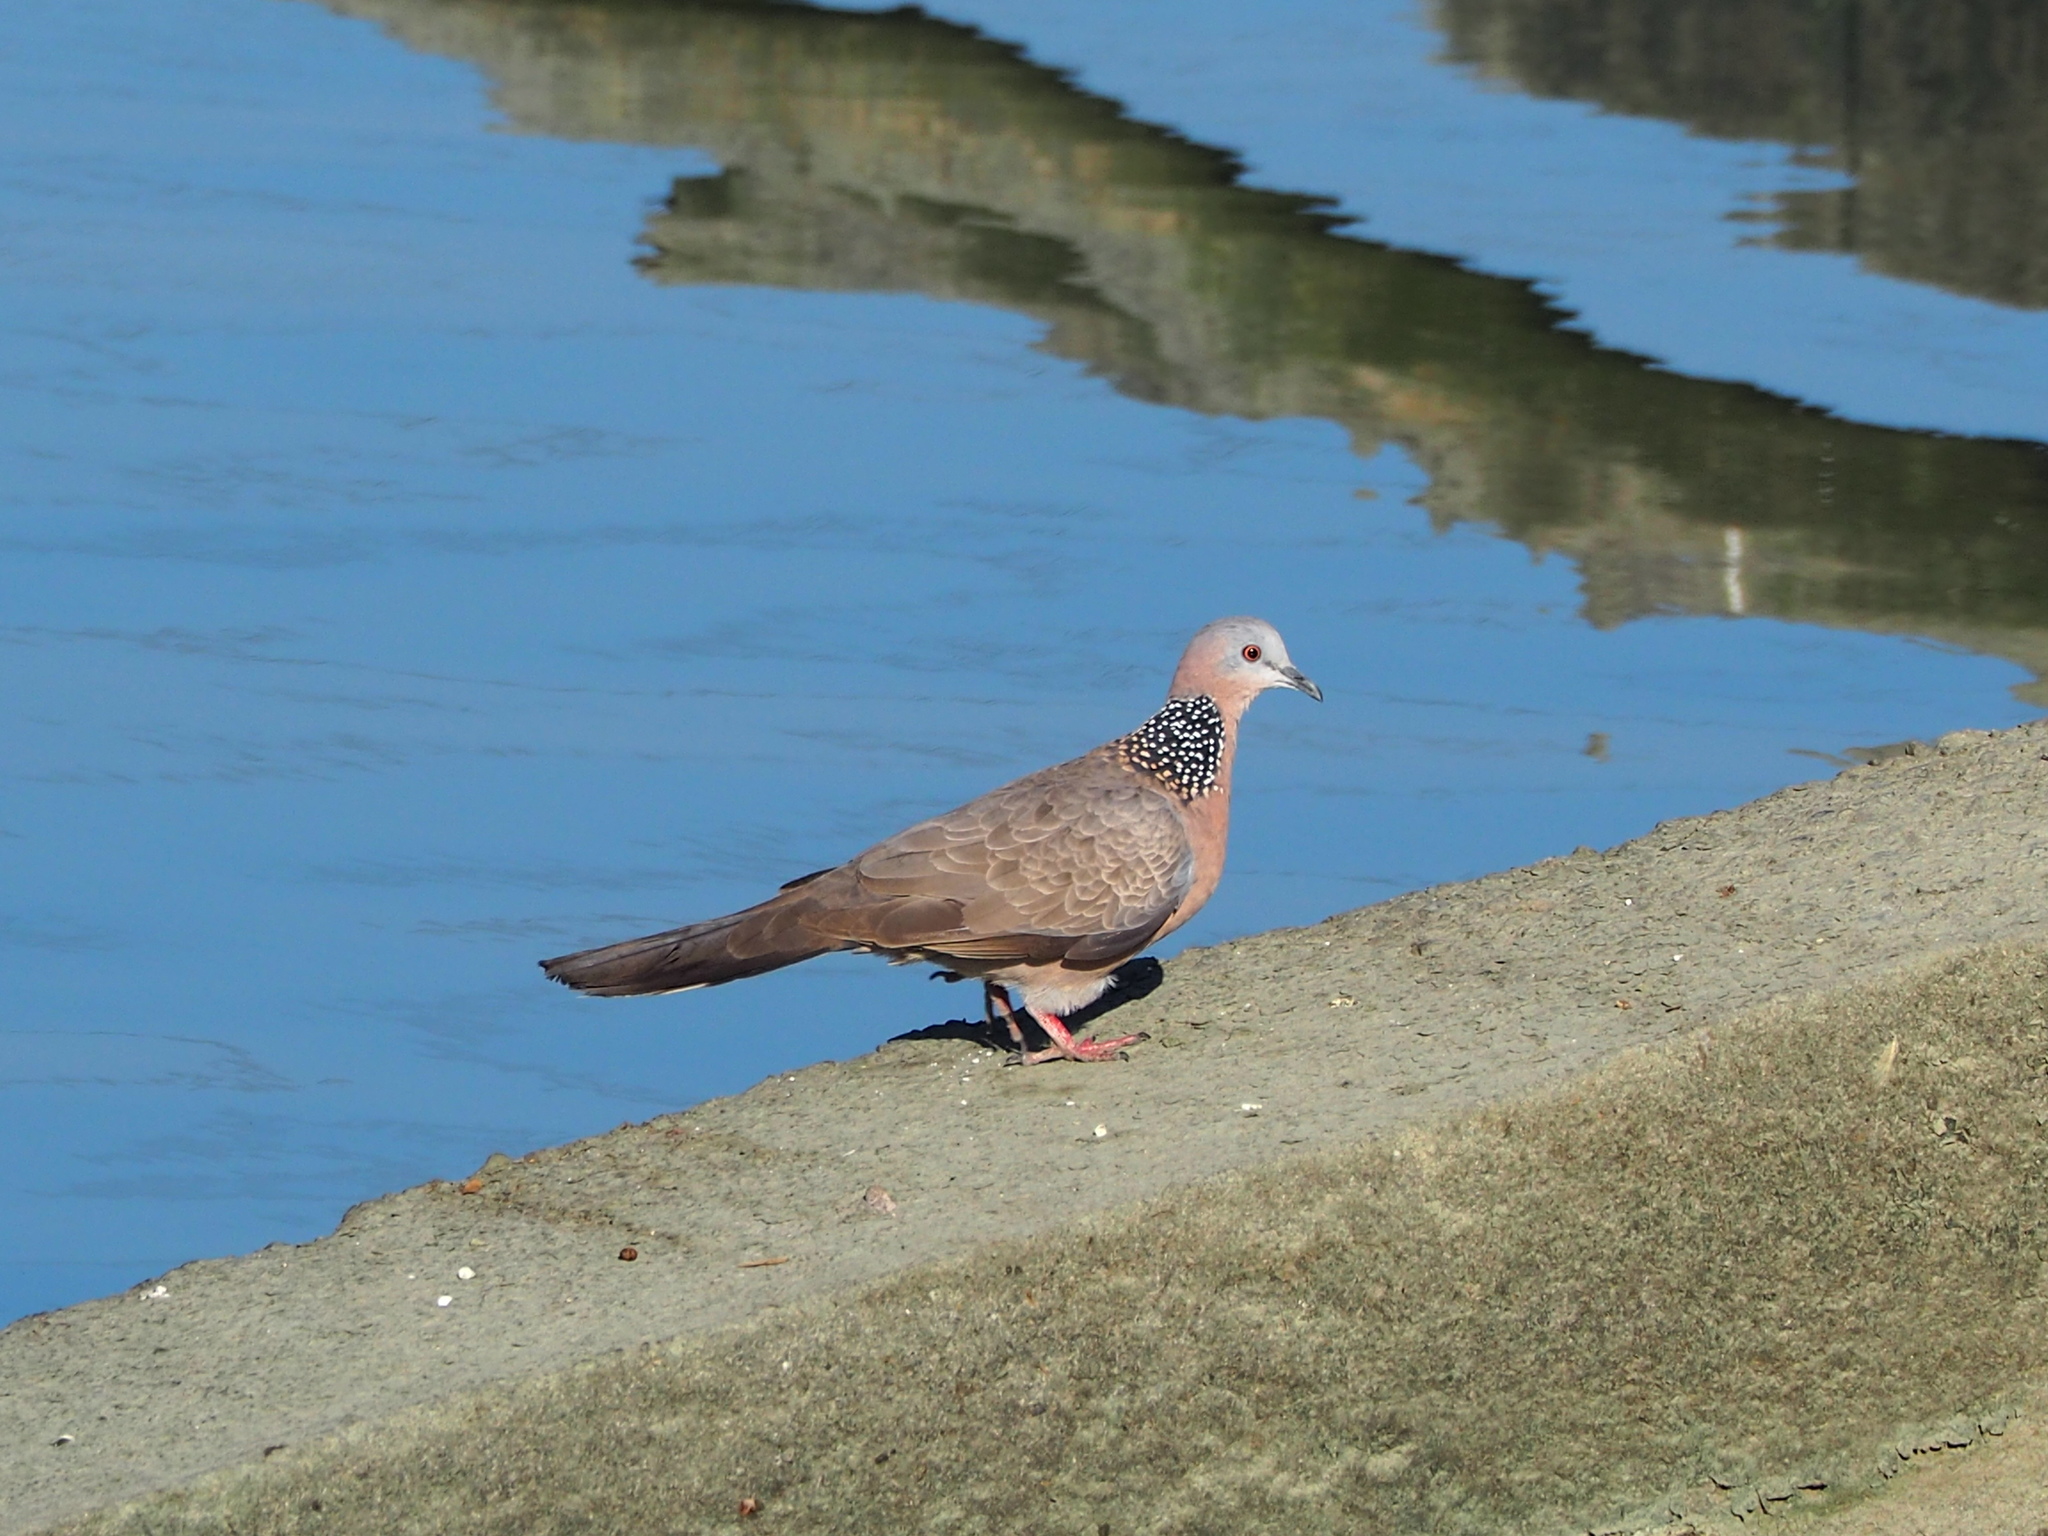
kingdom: Animalia
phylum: Chordata
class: Aves
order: Columbiformes
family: Columbidae
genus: Spilopelia
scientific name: Spilopelia chinensis
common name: Spotted dove
